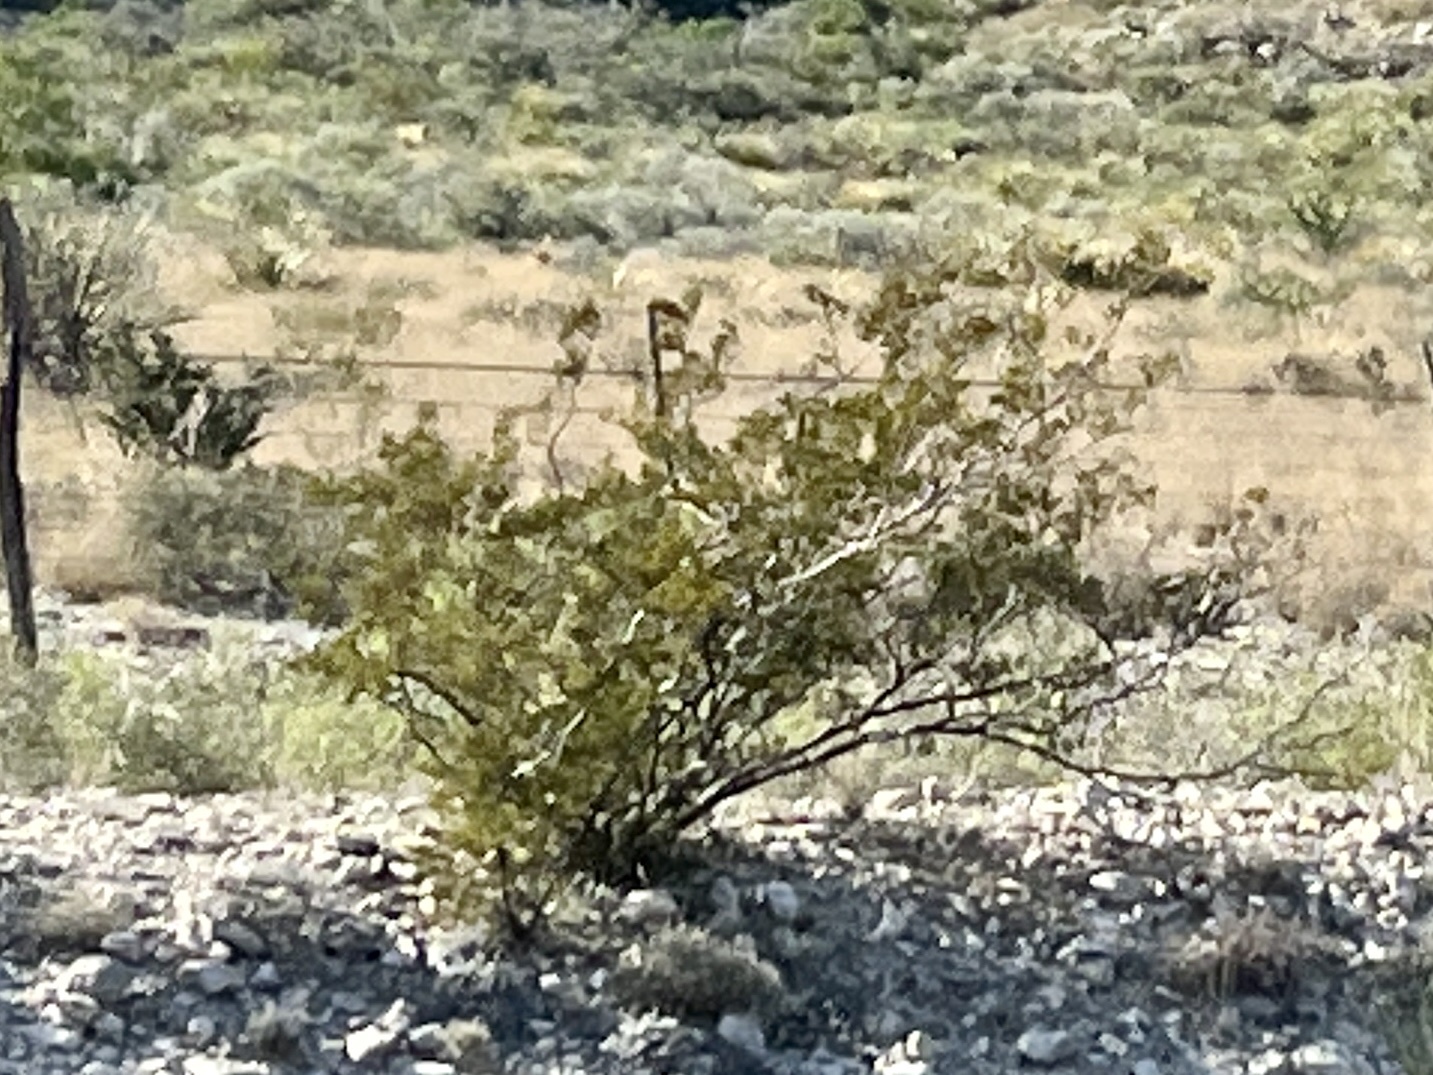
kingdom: Plantae
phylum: Tracheophyta
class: Magnoliopsida
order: Zygophyllales
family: Zygophyllaceae
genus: Larrea
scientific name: Larrea tridentata
